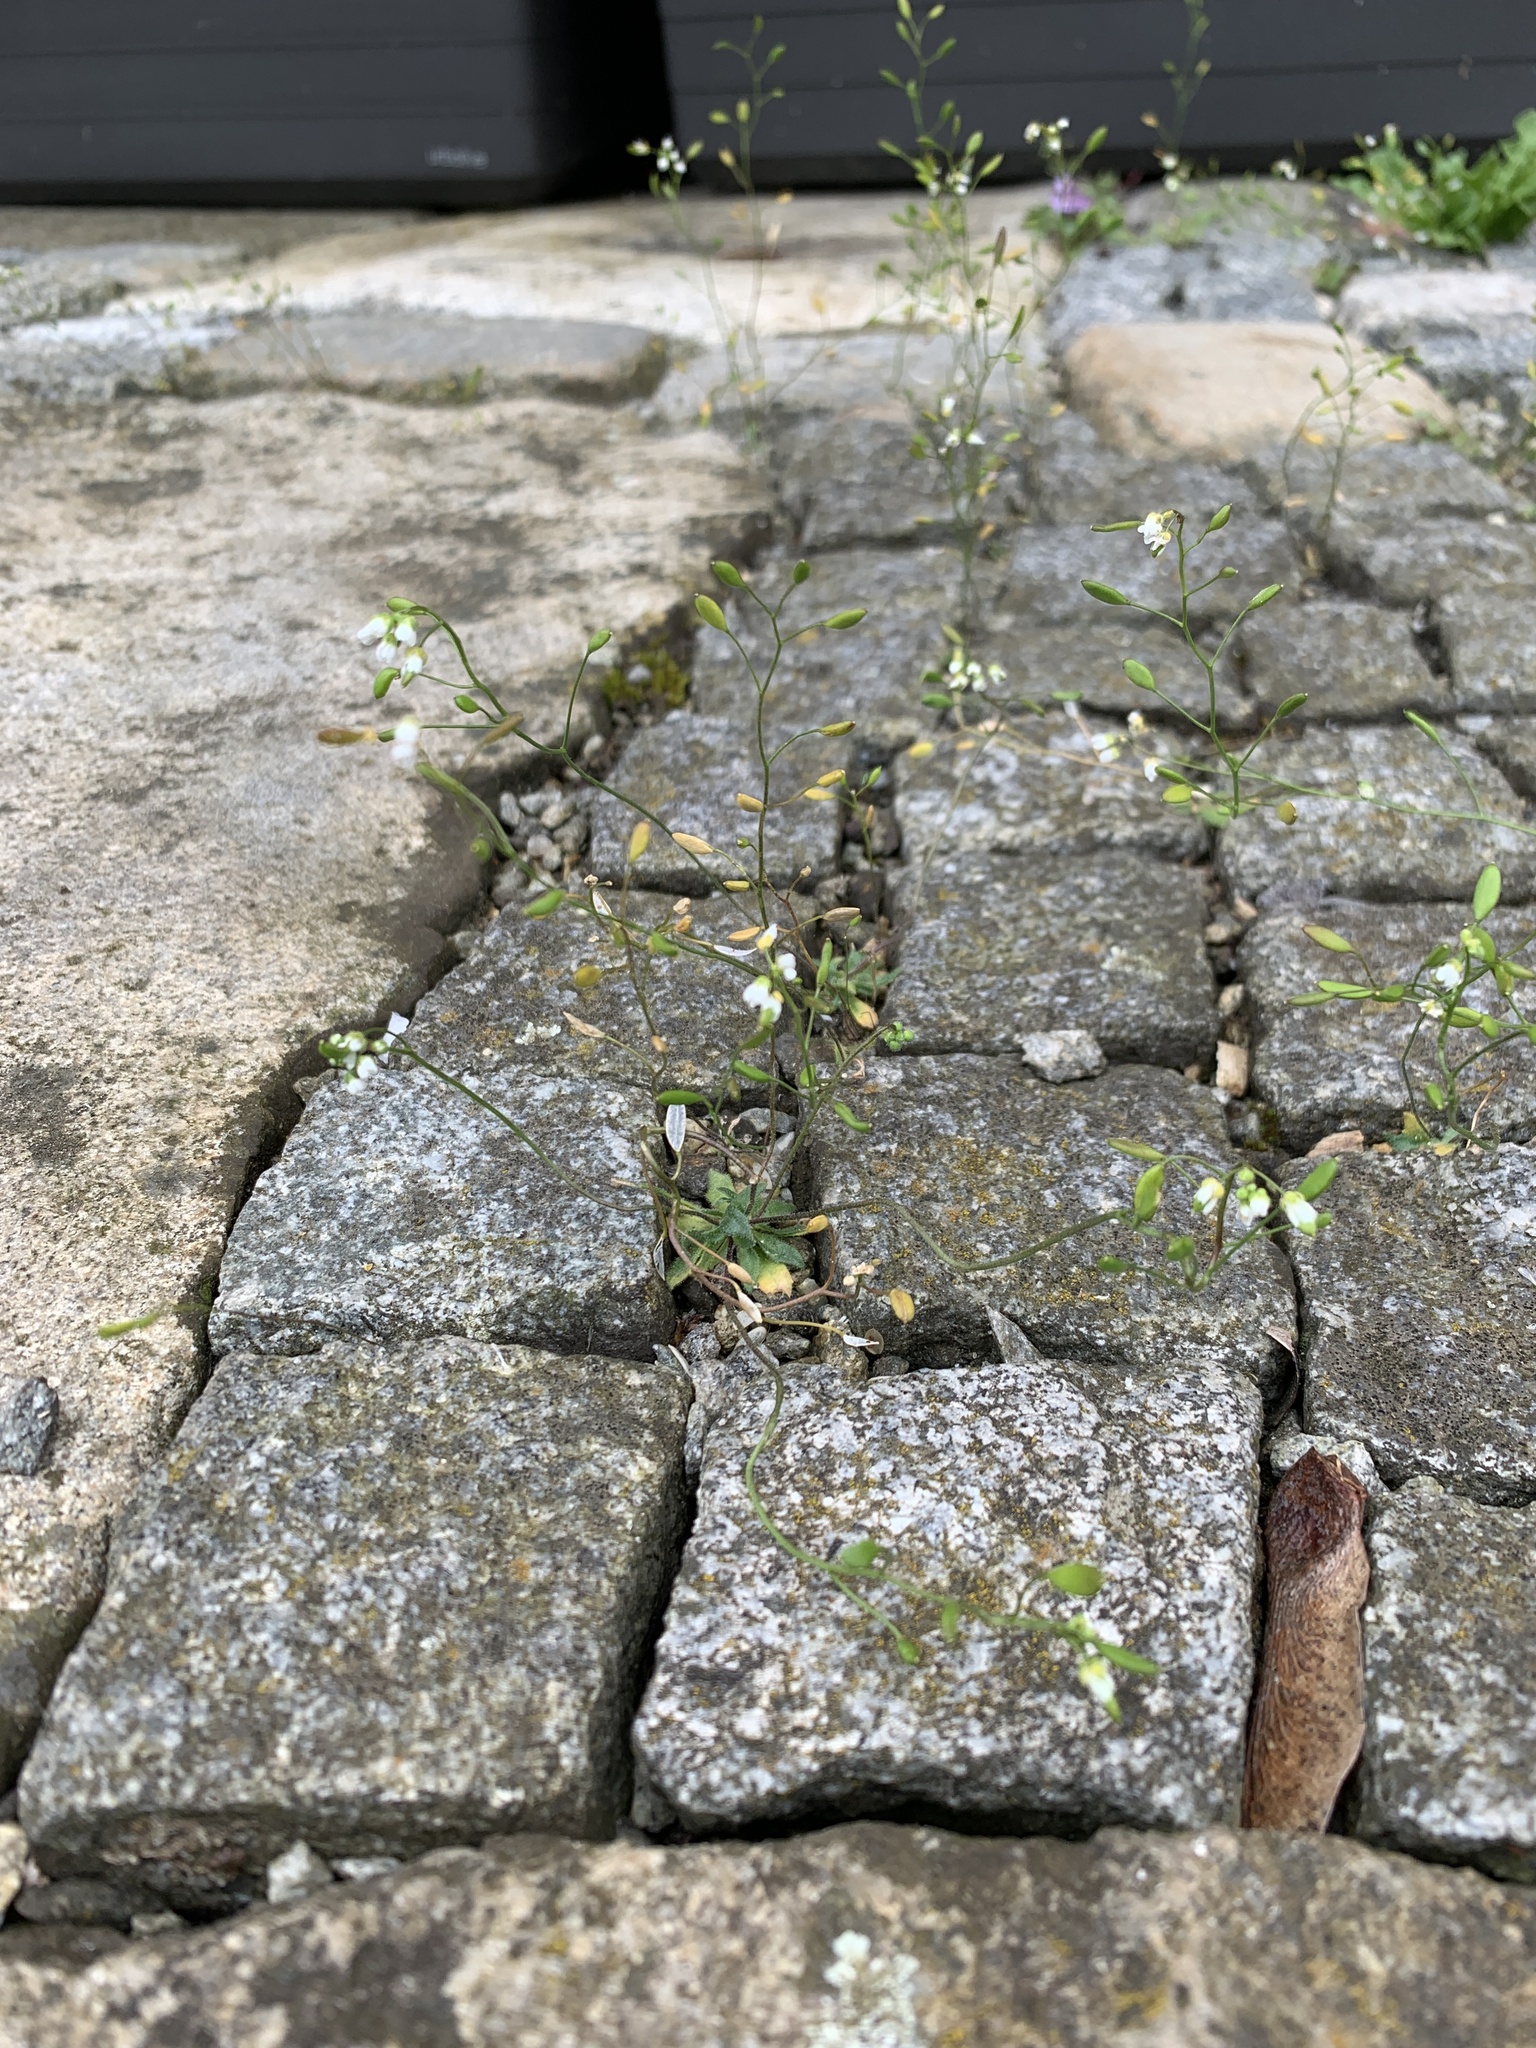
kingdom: Plantae
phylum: Tracheophyta
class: Magnoliopsida
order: Brassicales
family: Brassicaceae
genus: Draba
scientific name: Draba verna
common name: Spring draba
